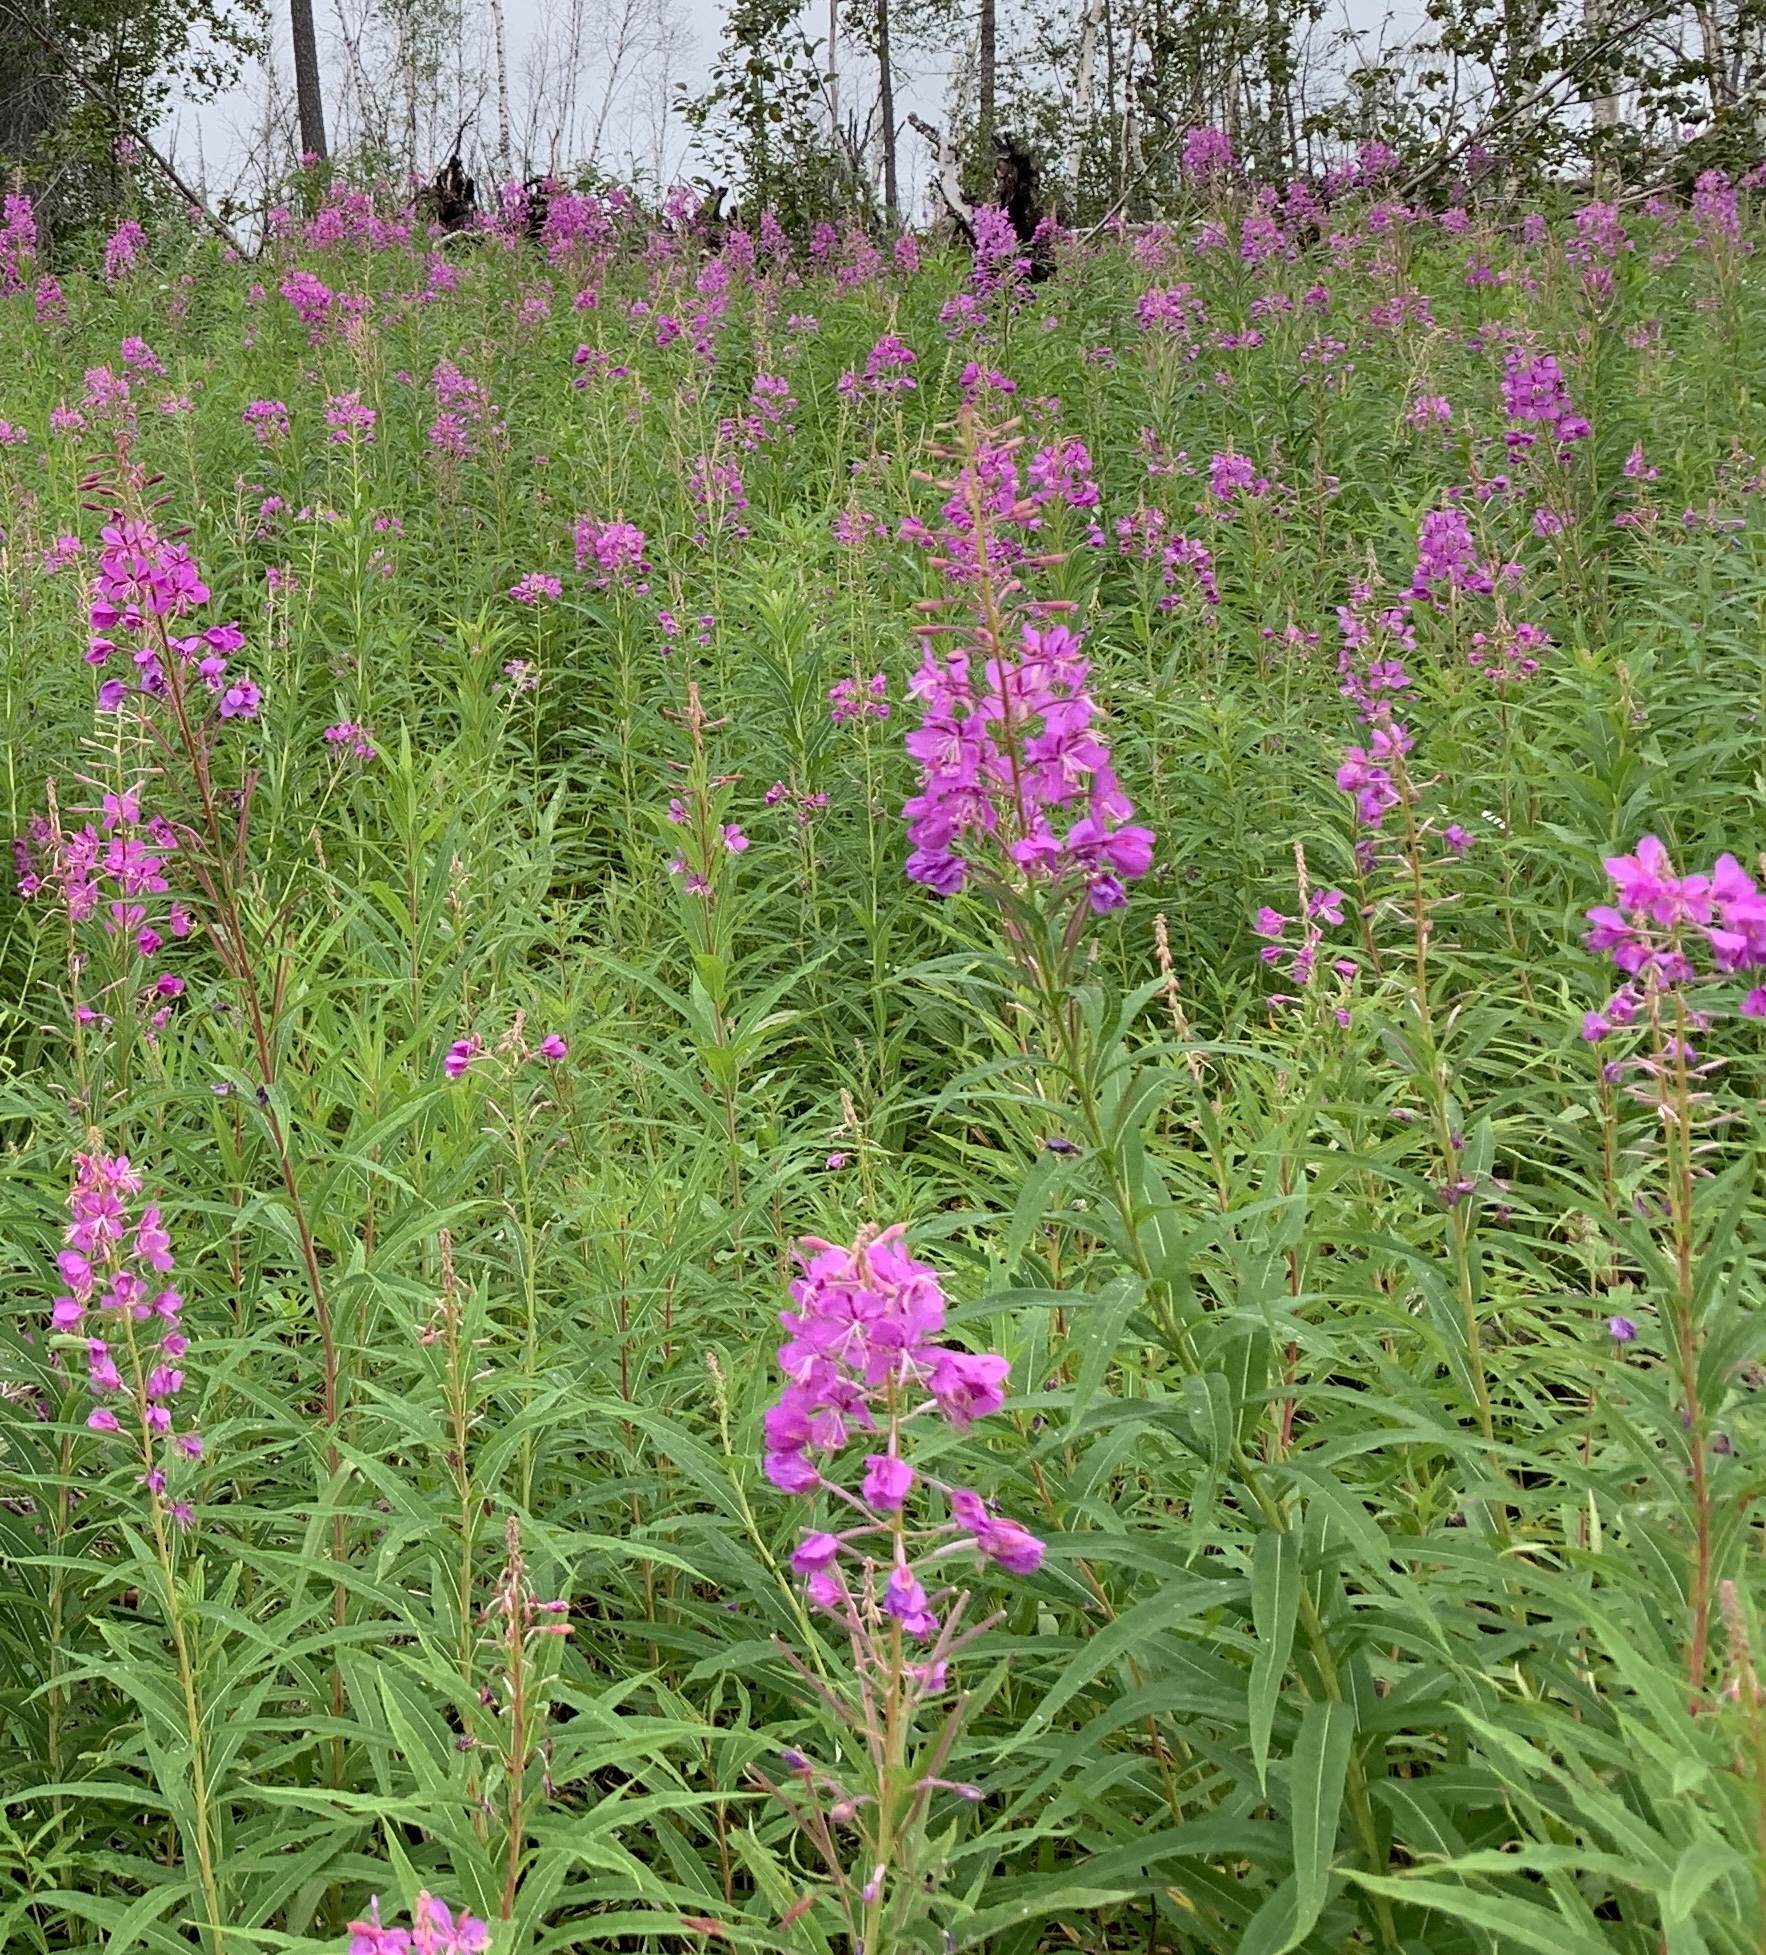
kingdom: Plantae
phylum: Tracheophyta
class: Magnoliopsida
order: Myrtales
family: Onagraceae
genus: Chamaenerion
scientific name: Chamaenerion angustifolium
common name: Fireweed
